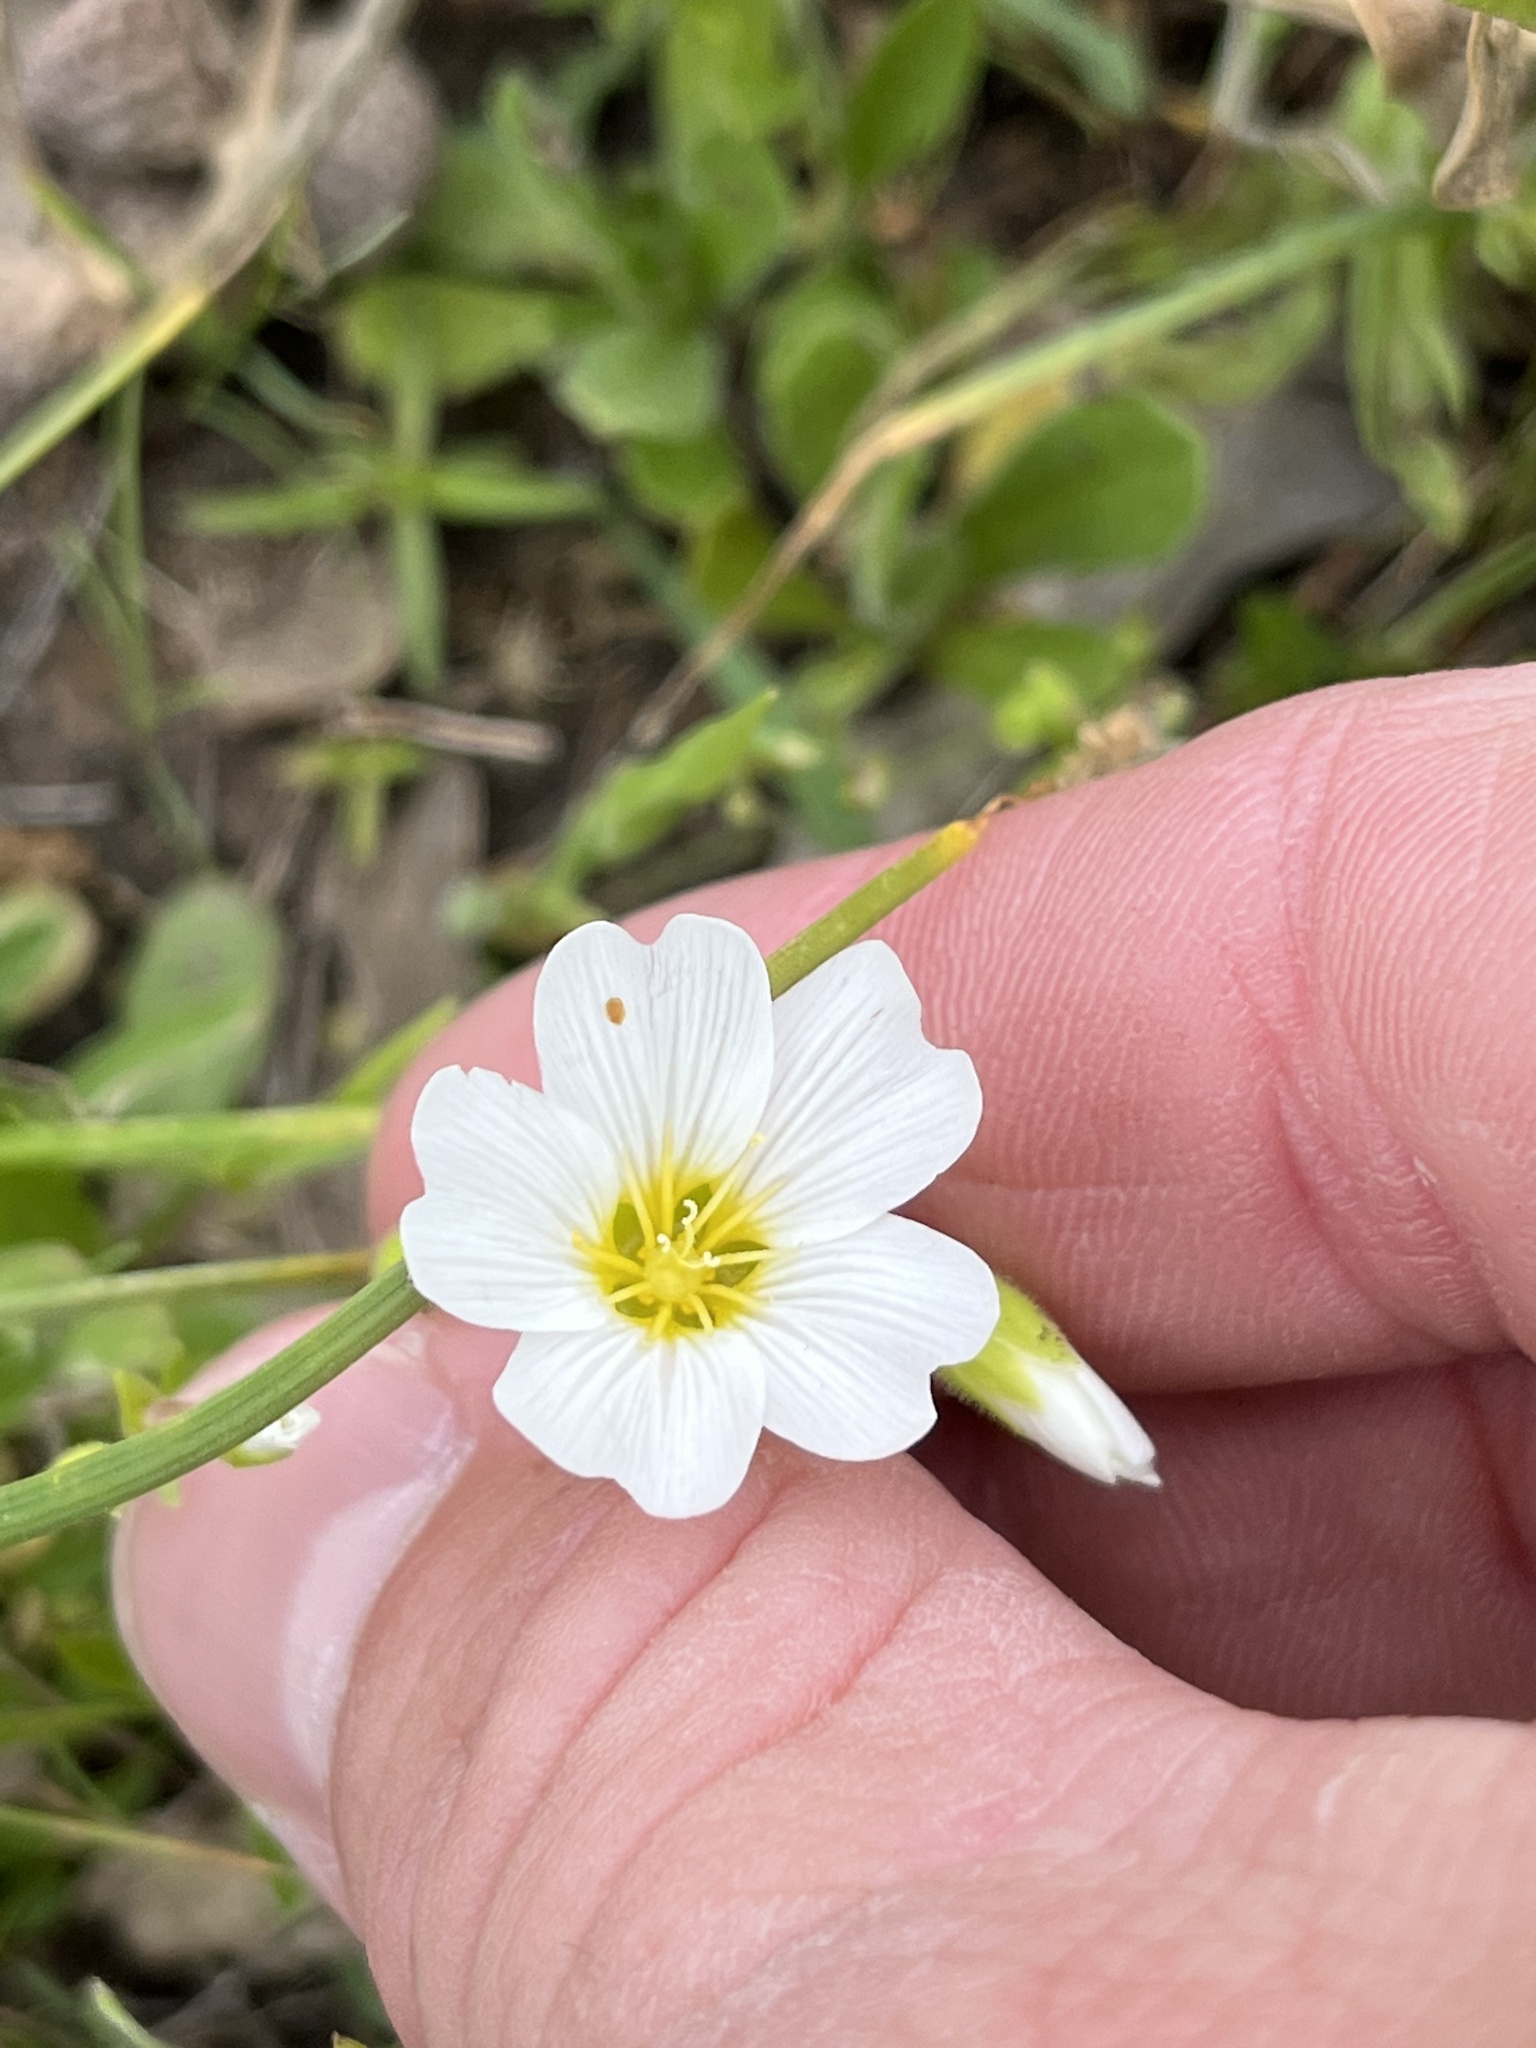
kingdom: Plantae
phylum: Tracheophyta
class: Magnoliopsida
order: Caryophyllales
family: Caryophyllaceae
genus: Geocarpon
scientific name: Geocarpon nuttallii
